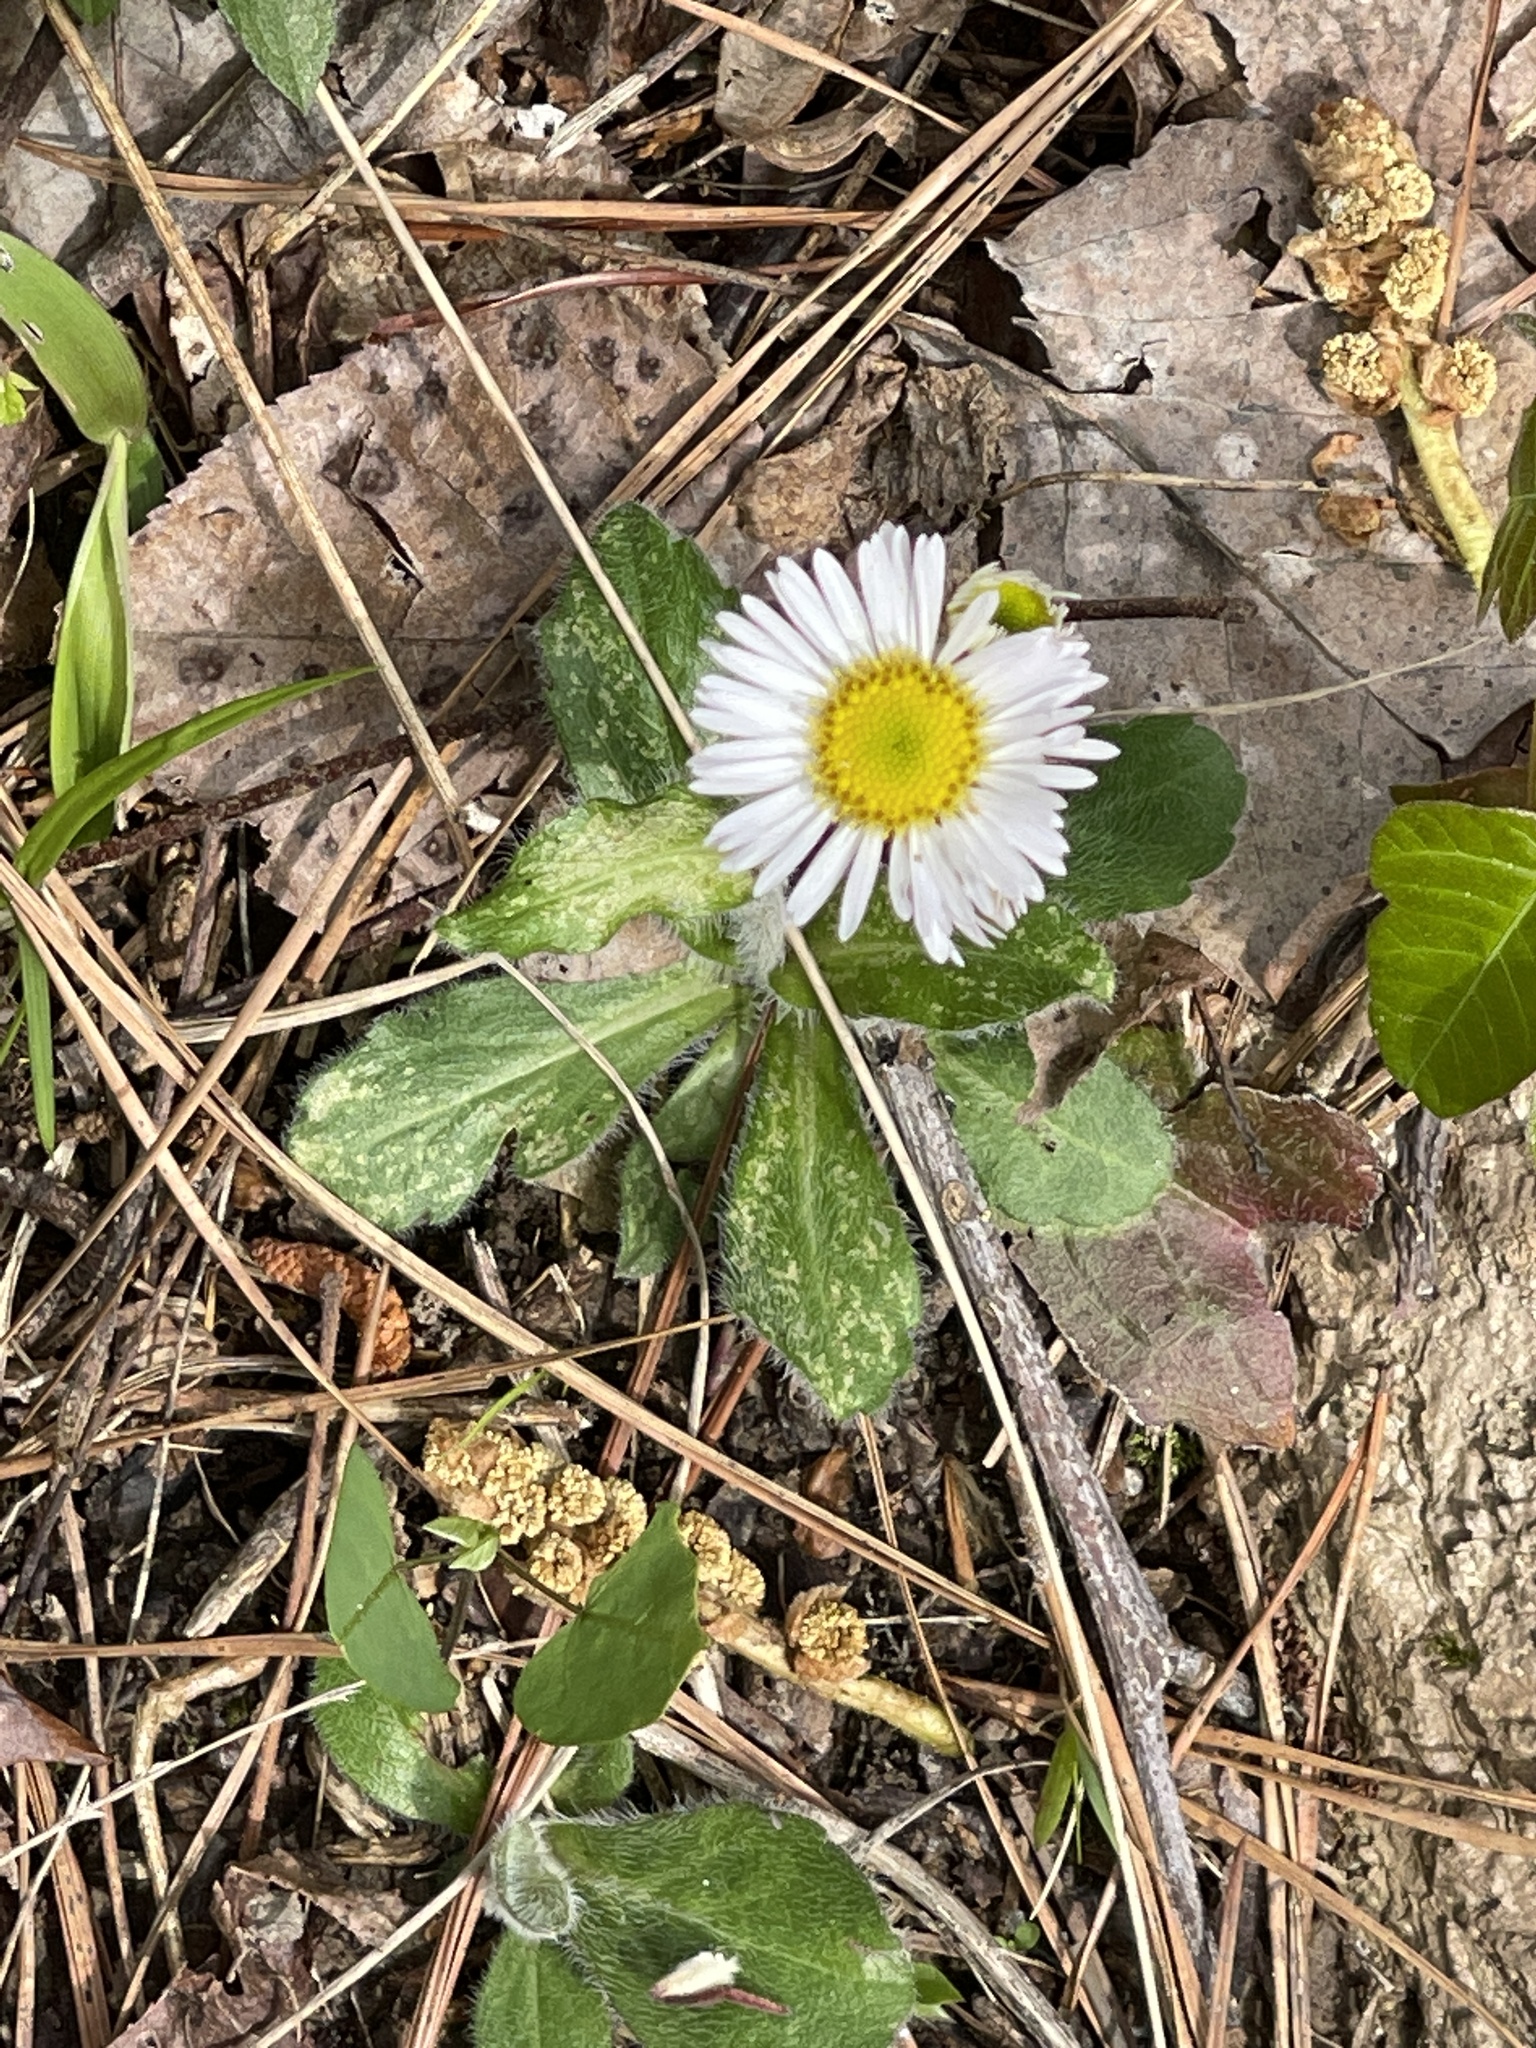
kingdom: Plantae
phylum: Tracheophyta
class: Magnoliopsida
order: Asterales
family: Asteraceae
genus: Erigeron
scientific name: Erigeron pulchellus
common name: Hairy fleabane
